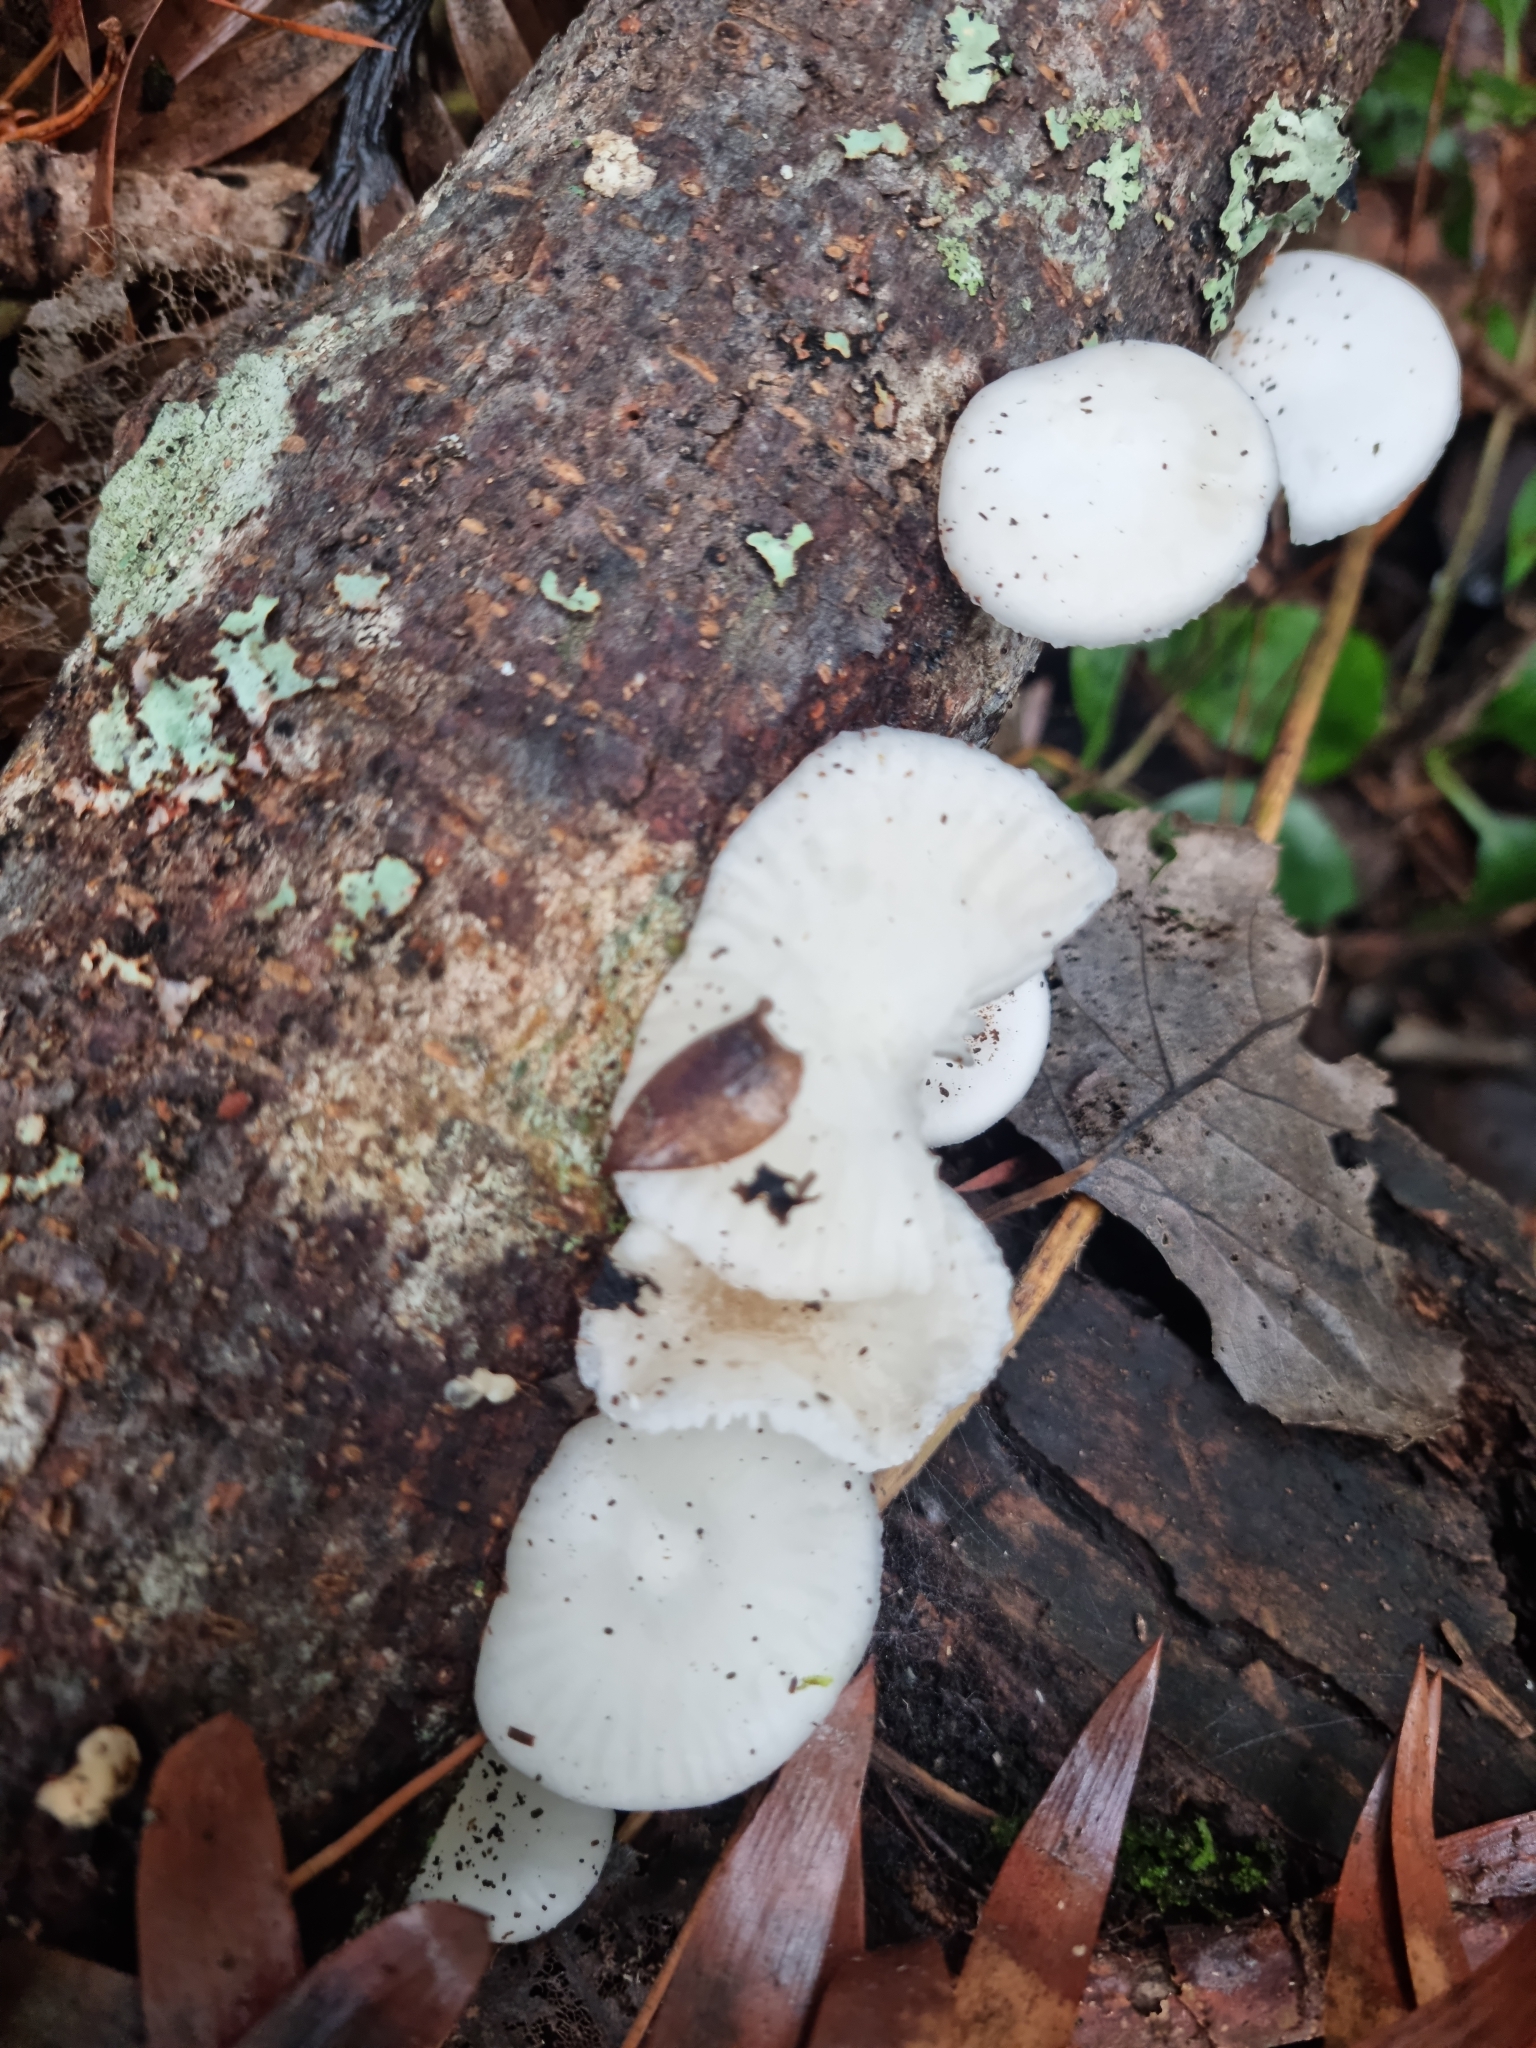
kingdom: Fungi
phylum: Basidiomycota
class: Agaricomycetes
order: Agaricales
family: Physalacriaceae
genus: Oudemansiella
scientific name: Oudemansiella australis
